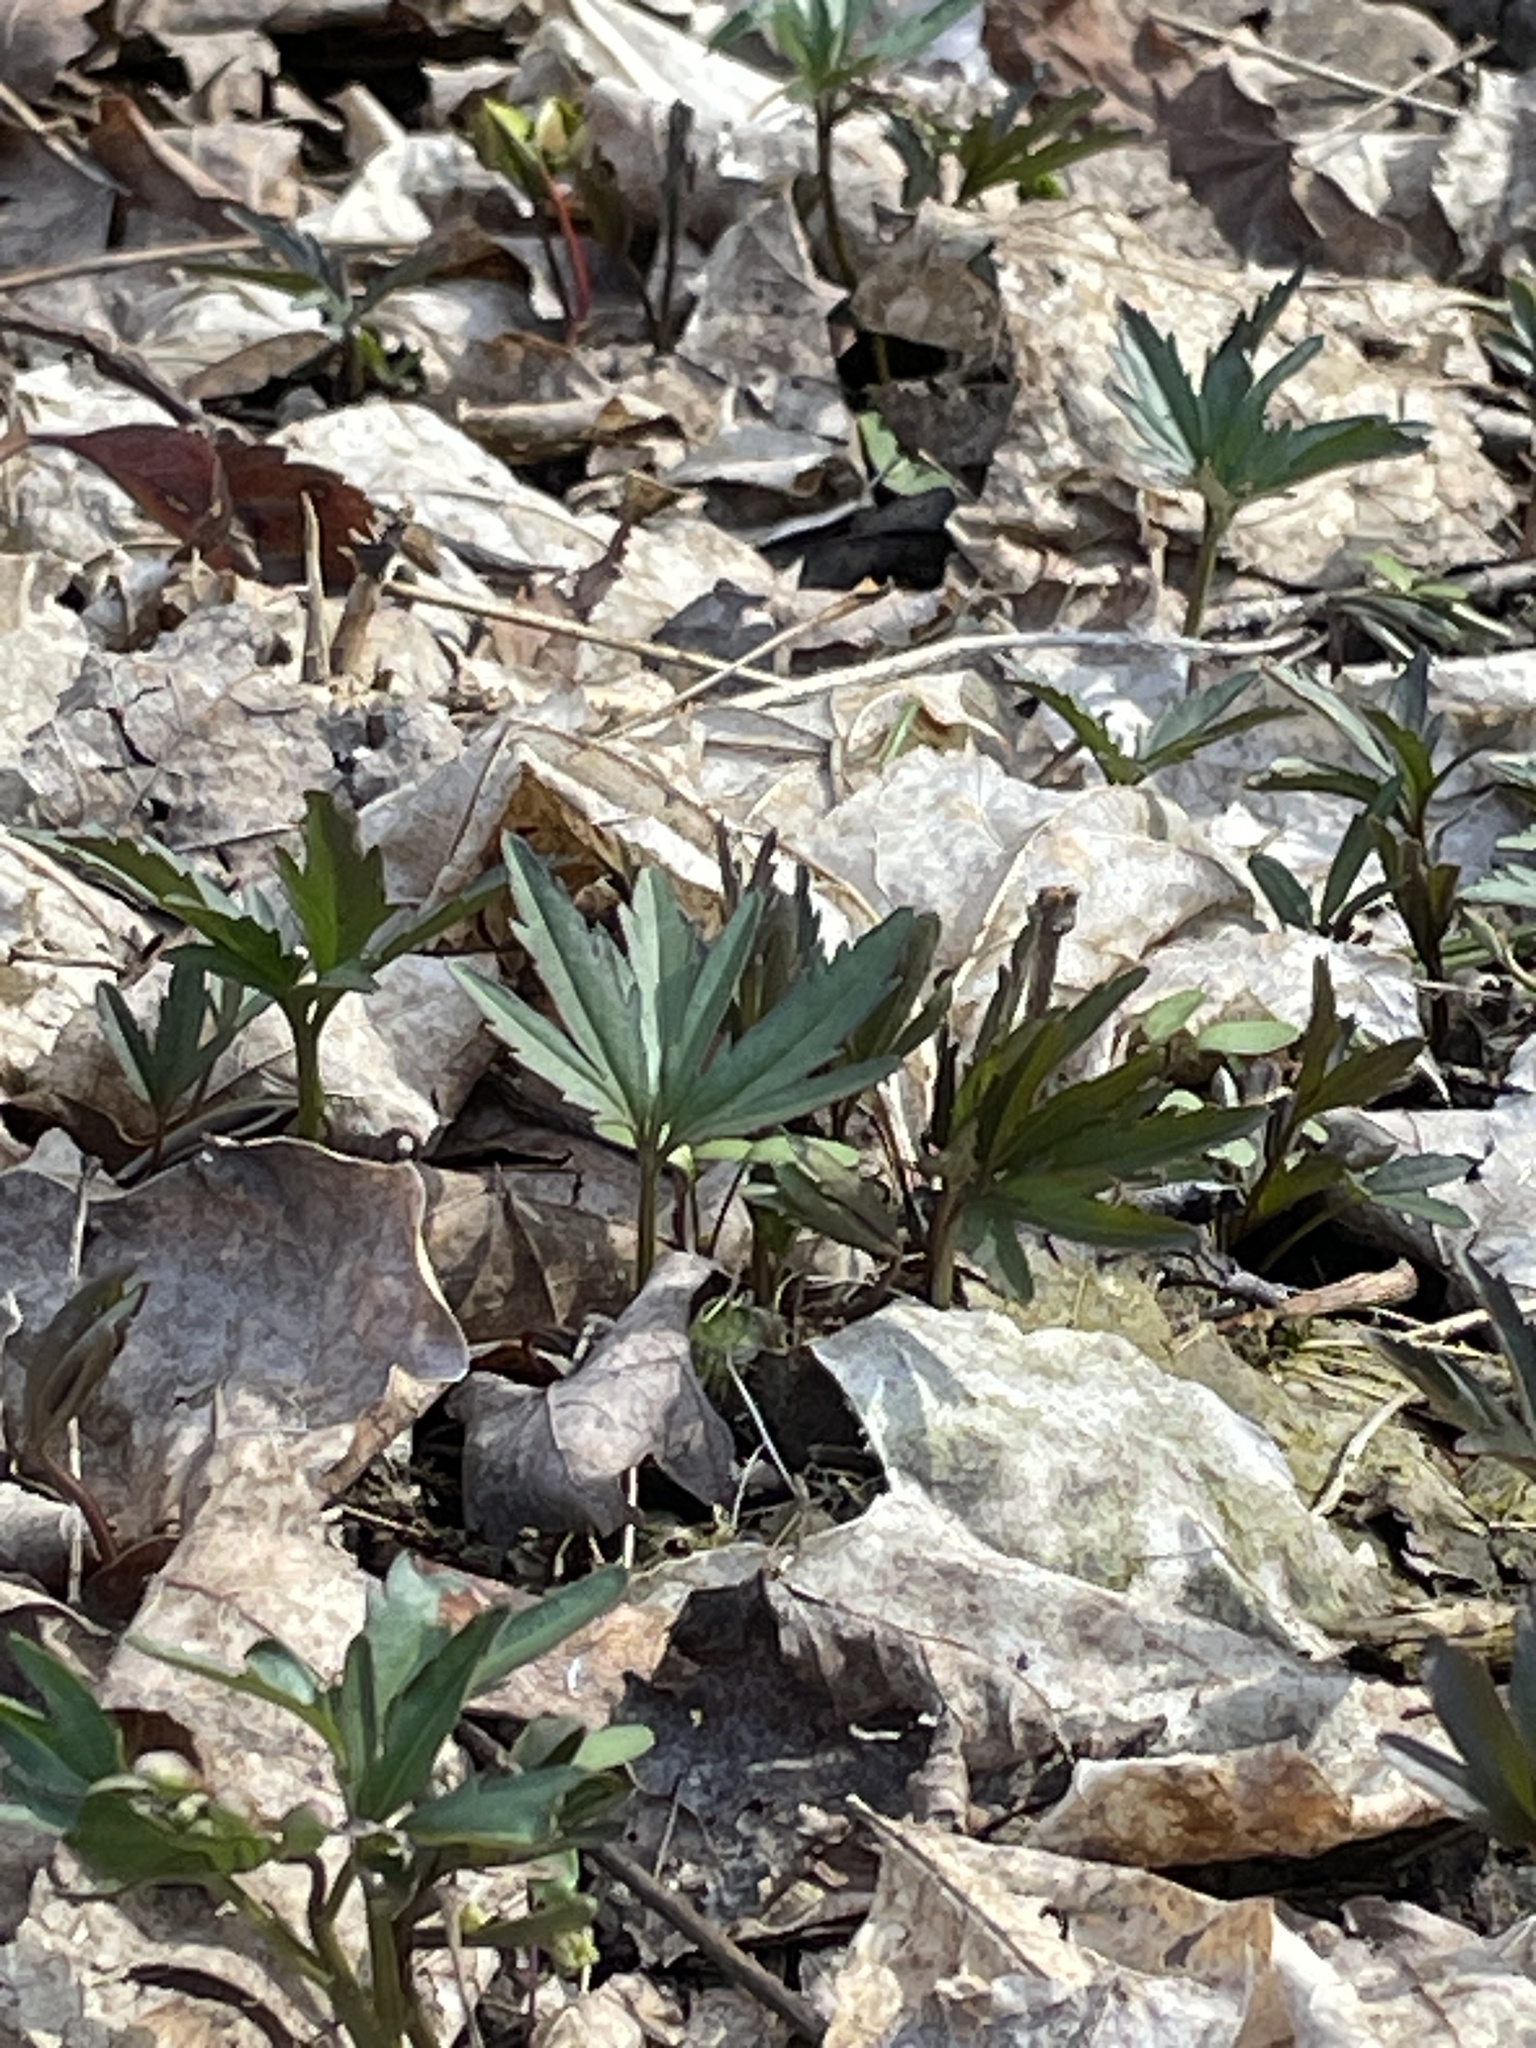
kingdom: Plantae
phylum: Tracheophyta
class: Magnoliopsida
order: Brassicales
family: Brassicaceae
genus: Cardamine
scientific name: Cardamine concatenata
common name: Cut-leaf toothcup
